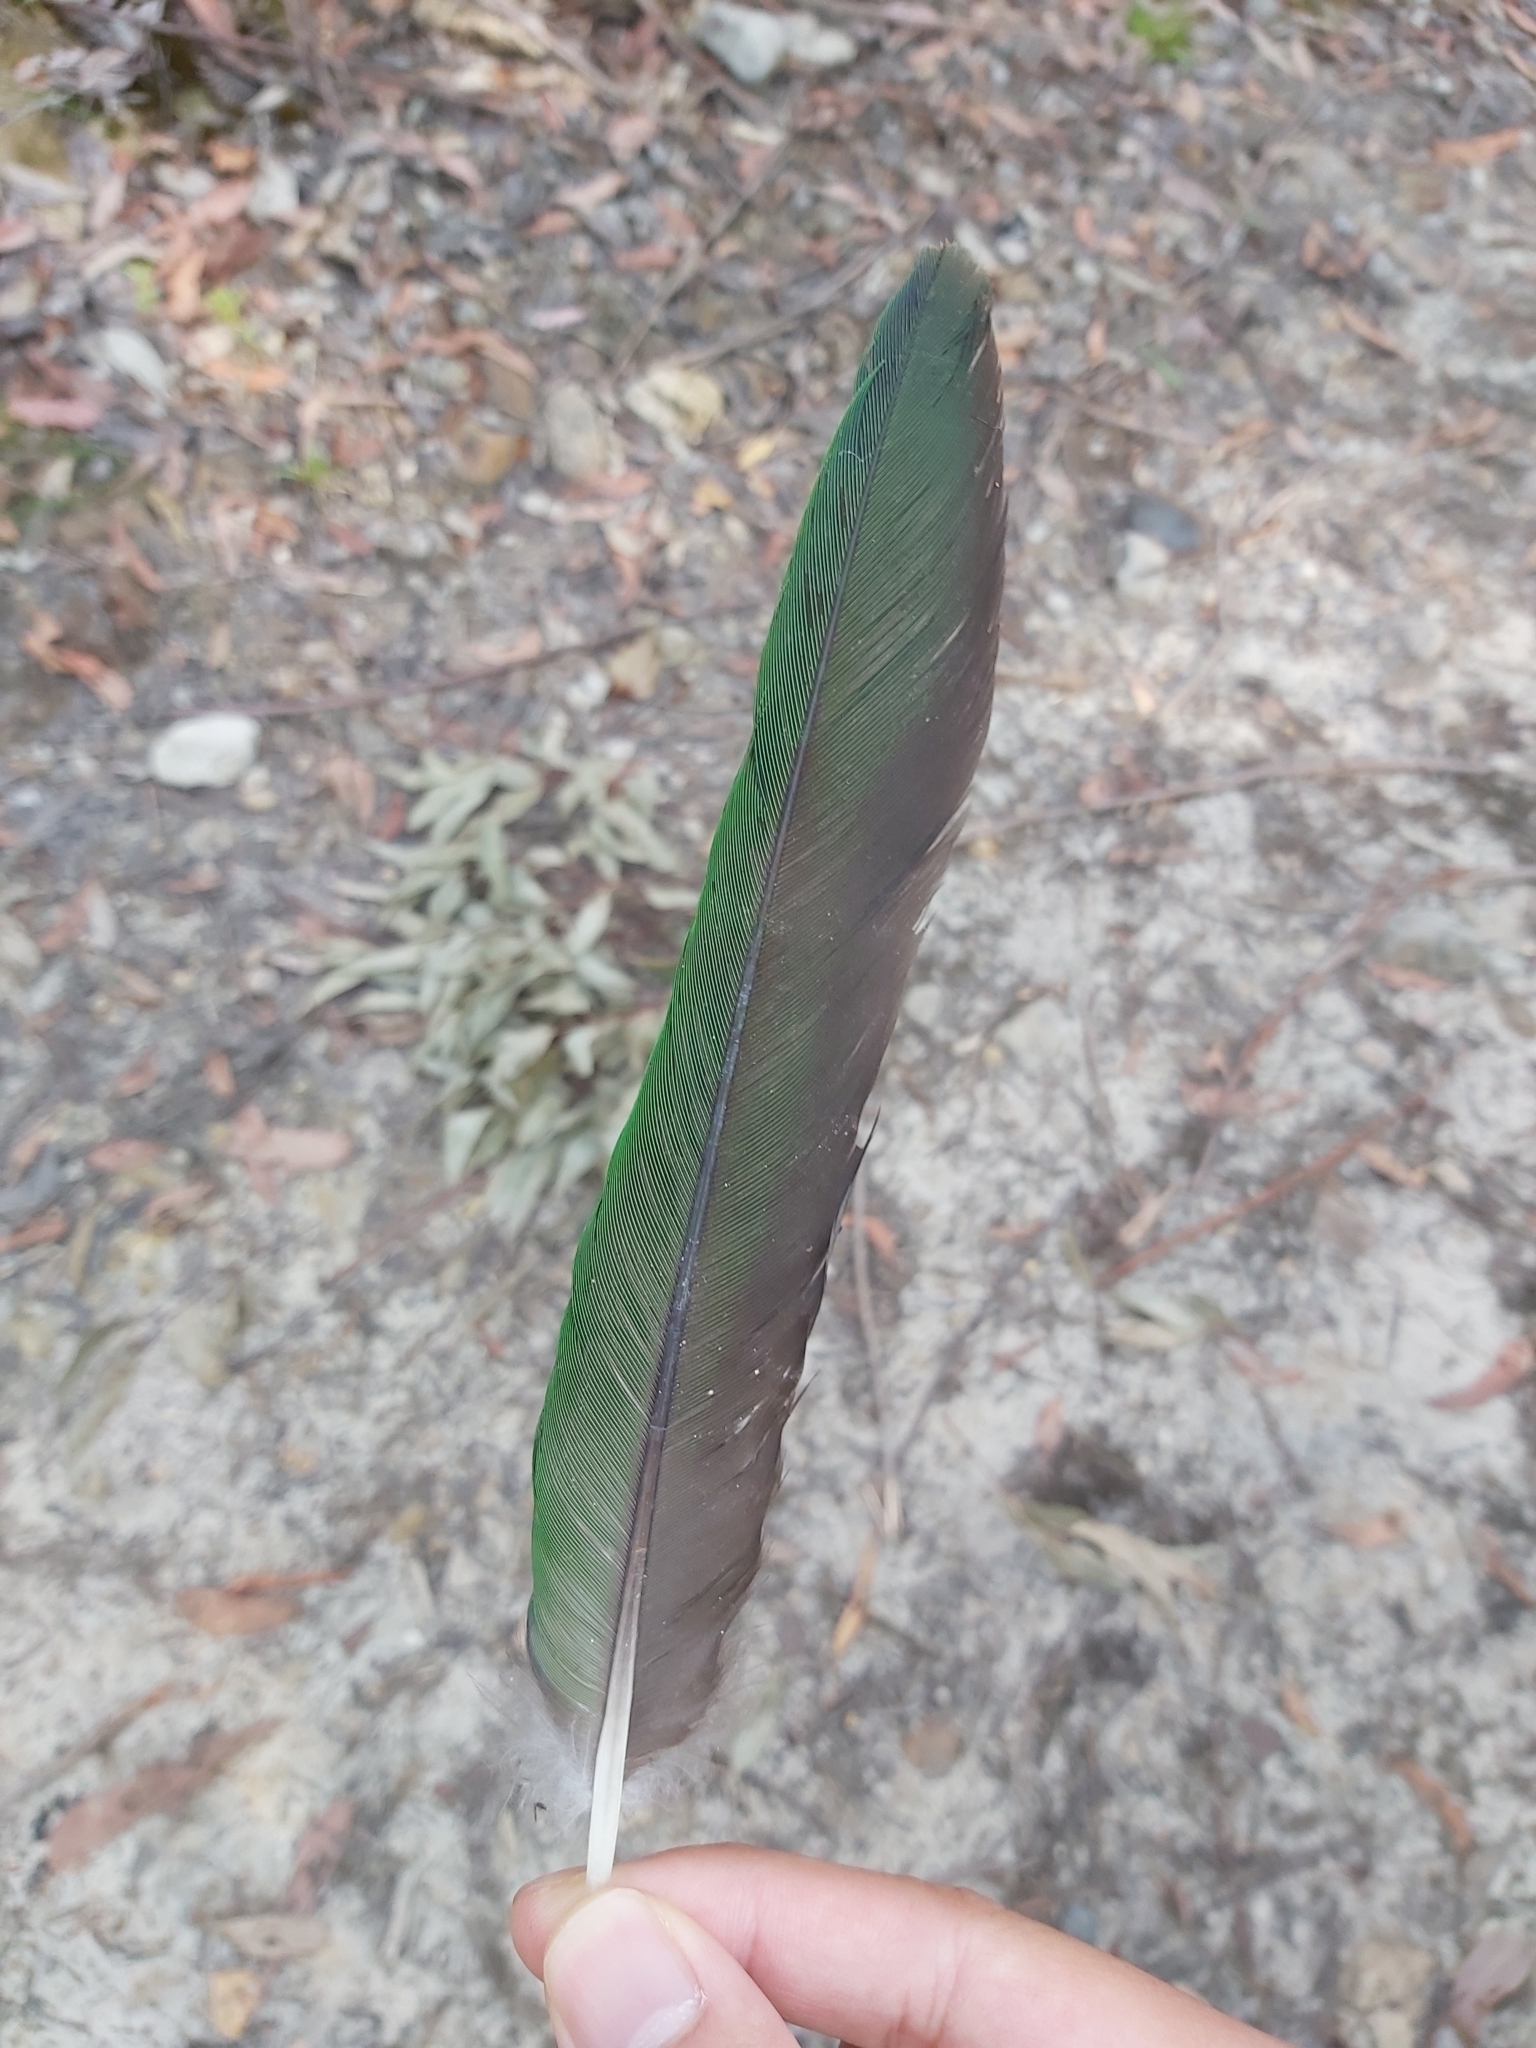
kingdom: Animalia
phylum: Chordata
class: Aves
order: Psittaciformes
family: Psittacidae
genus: Alisterus
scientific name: Alisterus scapularis
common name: Australian king parrot
